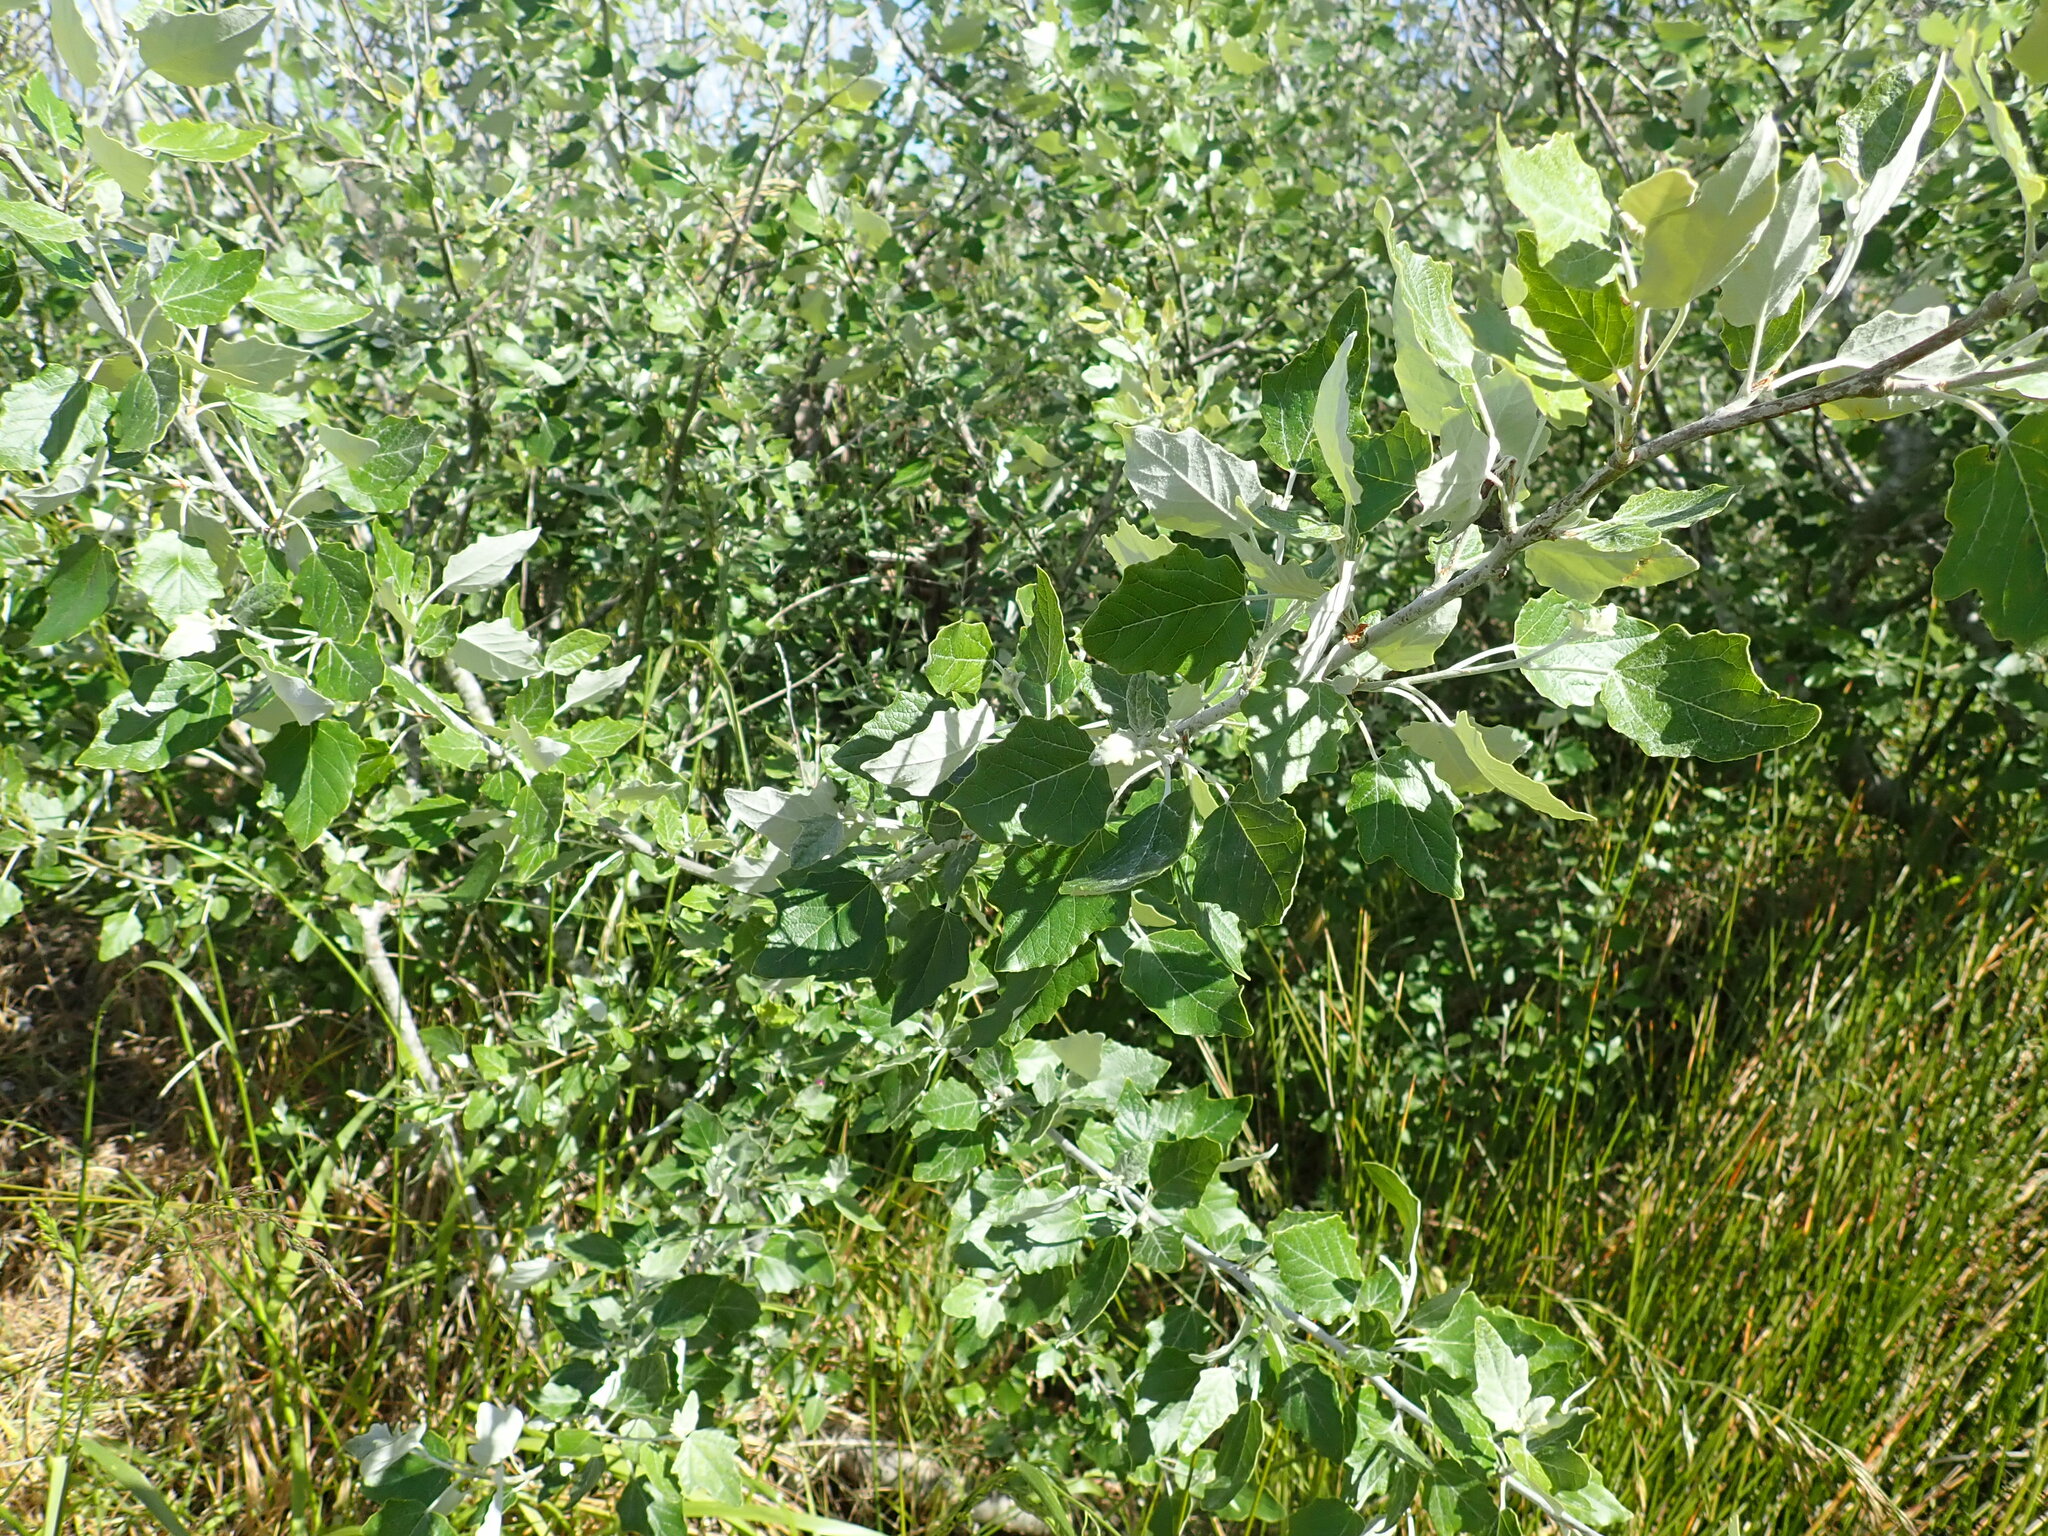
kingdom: Plantae
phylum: Tracheophyta
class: Magnoliopsida
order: Malpighiales
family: Salicaceae
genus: Populus
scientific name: Populus alba
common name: White poplar
